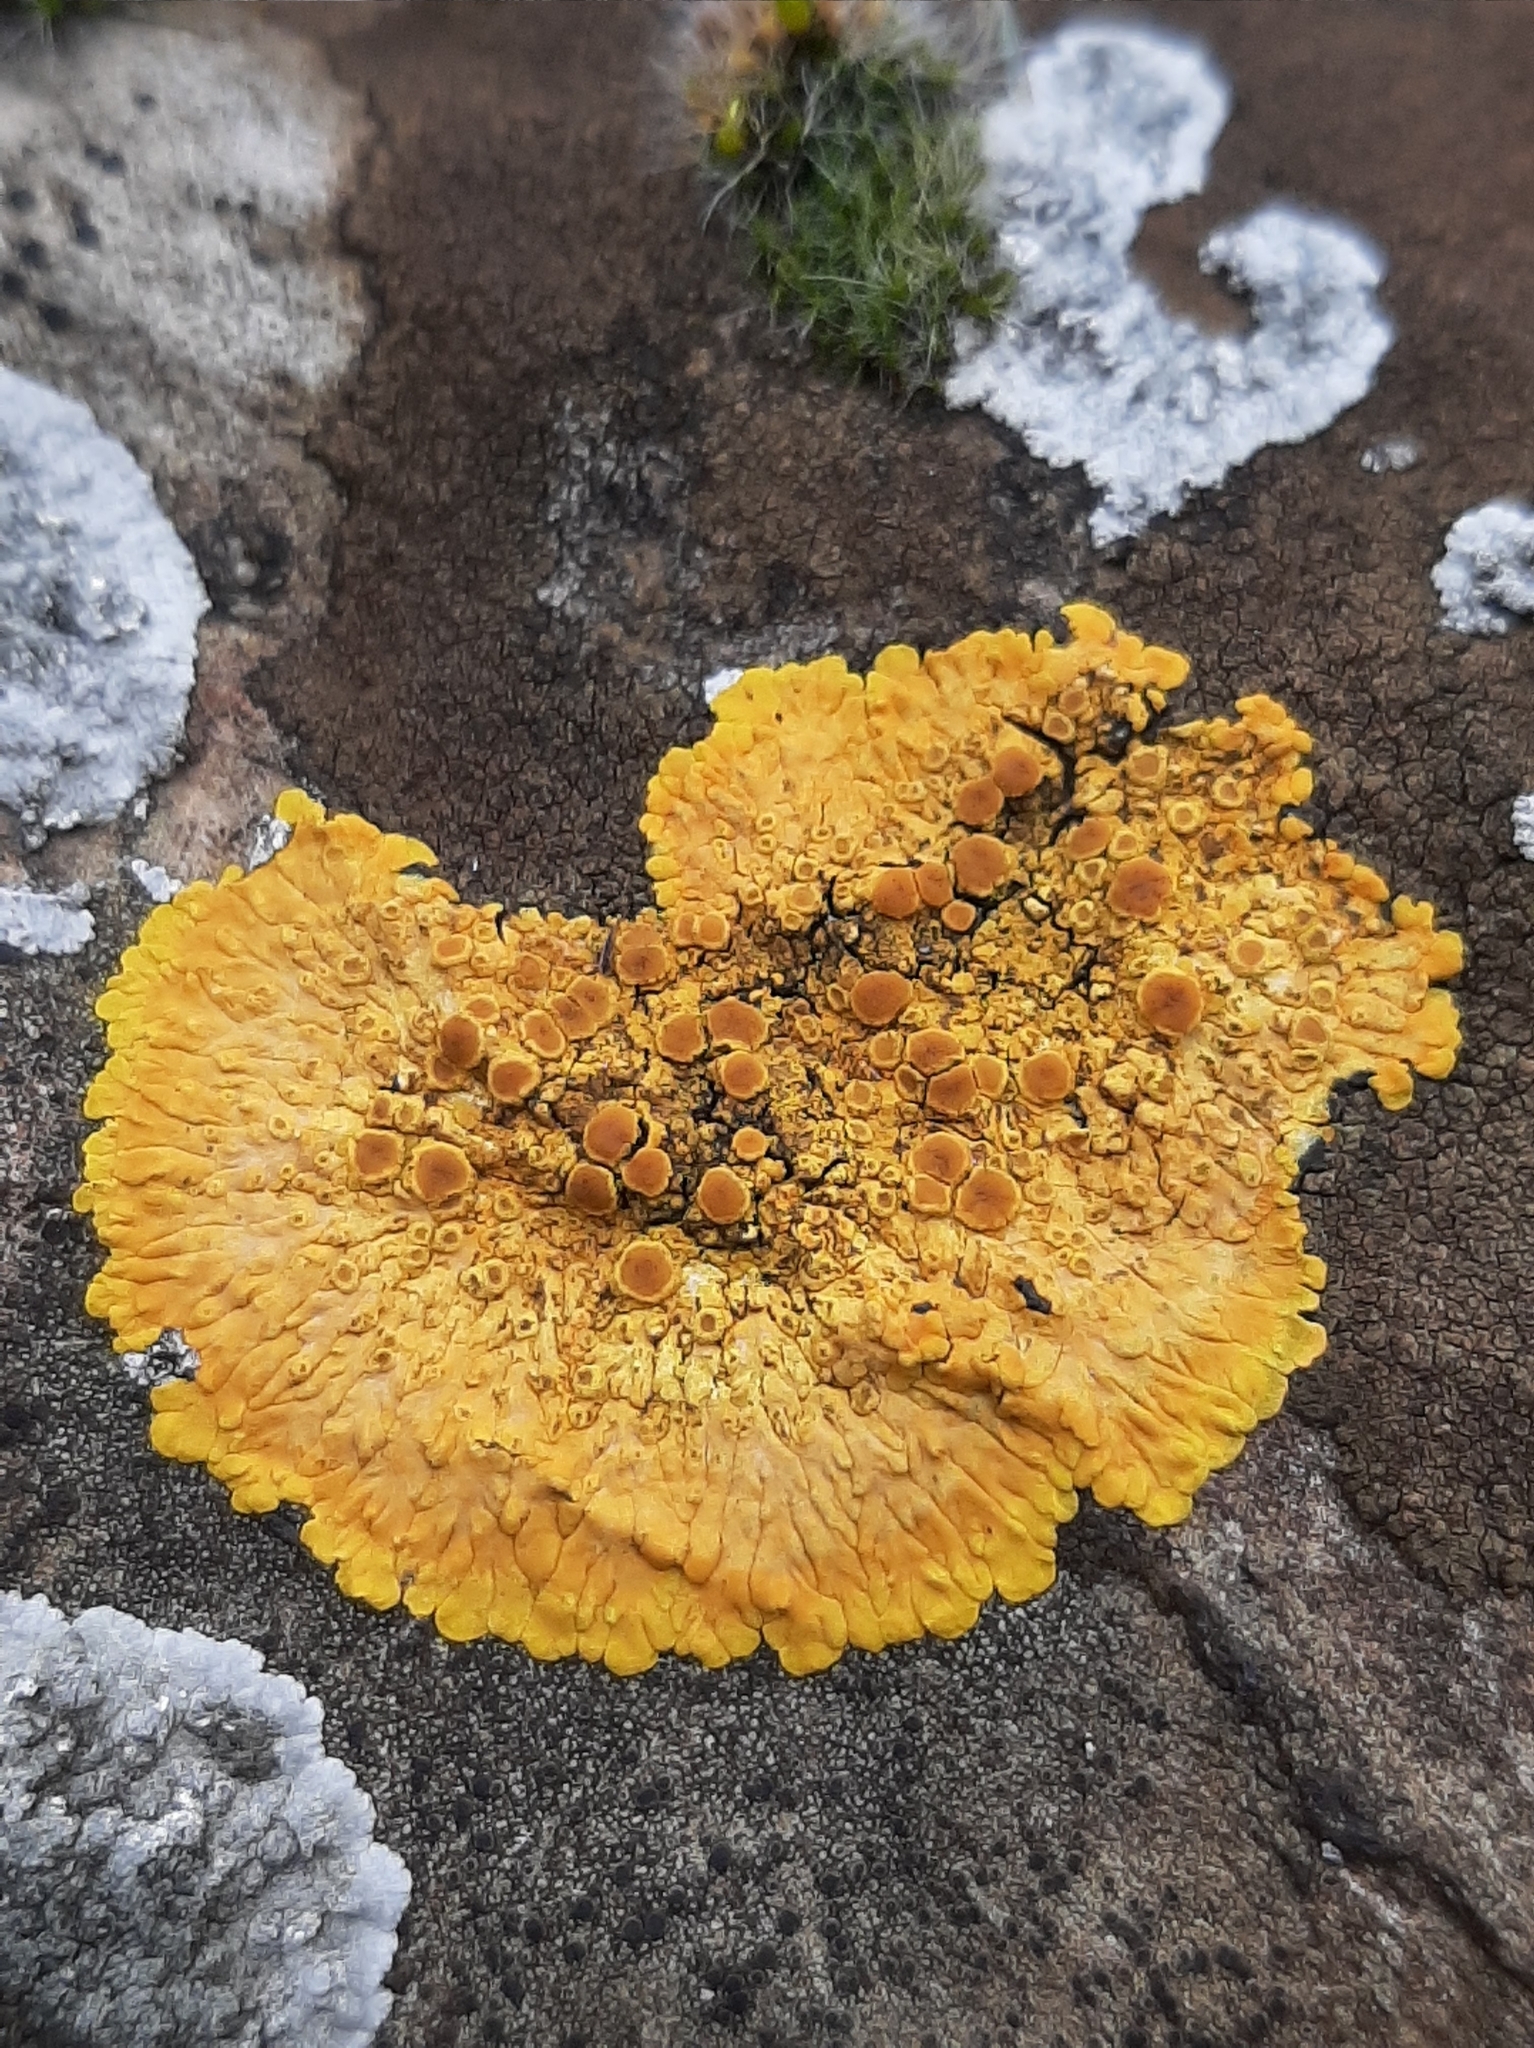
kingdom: Fungi
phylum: Ascomycota
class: Lecanoromycetes
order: Teloschistales
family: Teloschistaceae
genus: Variospora
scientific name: Variospora aurantia
